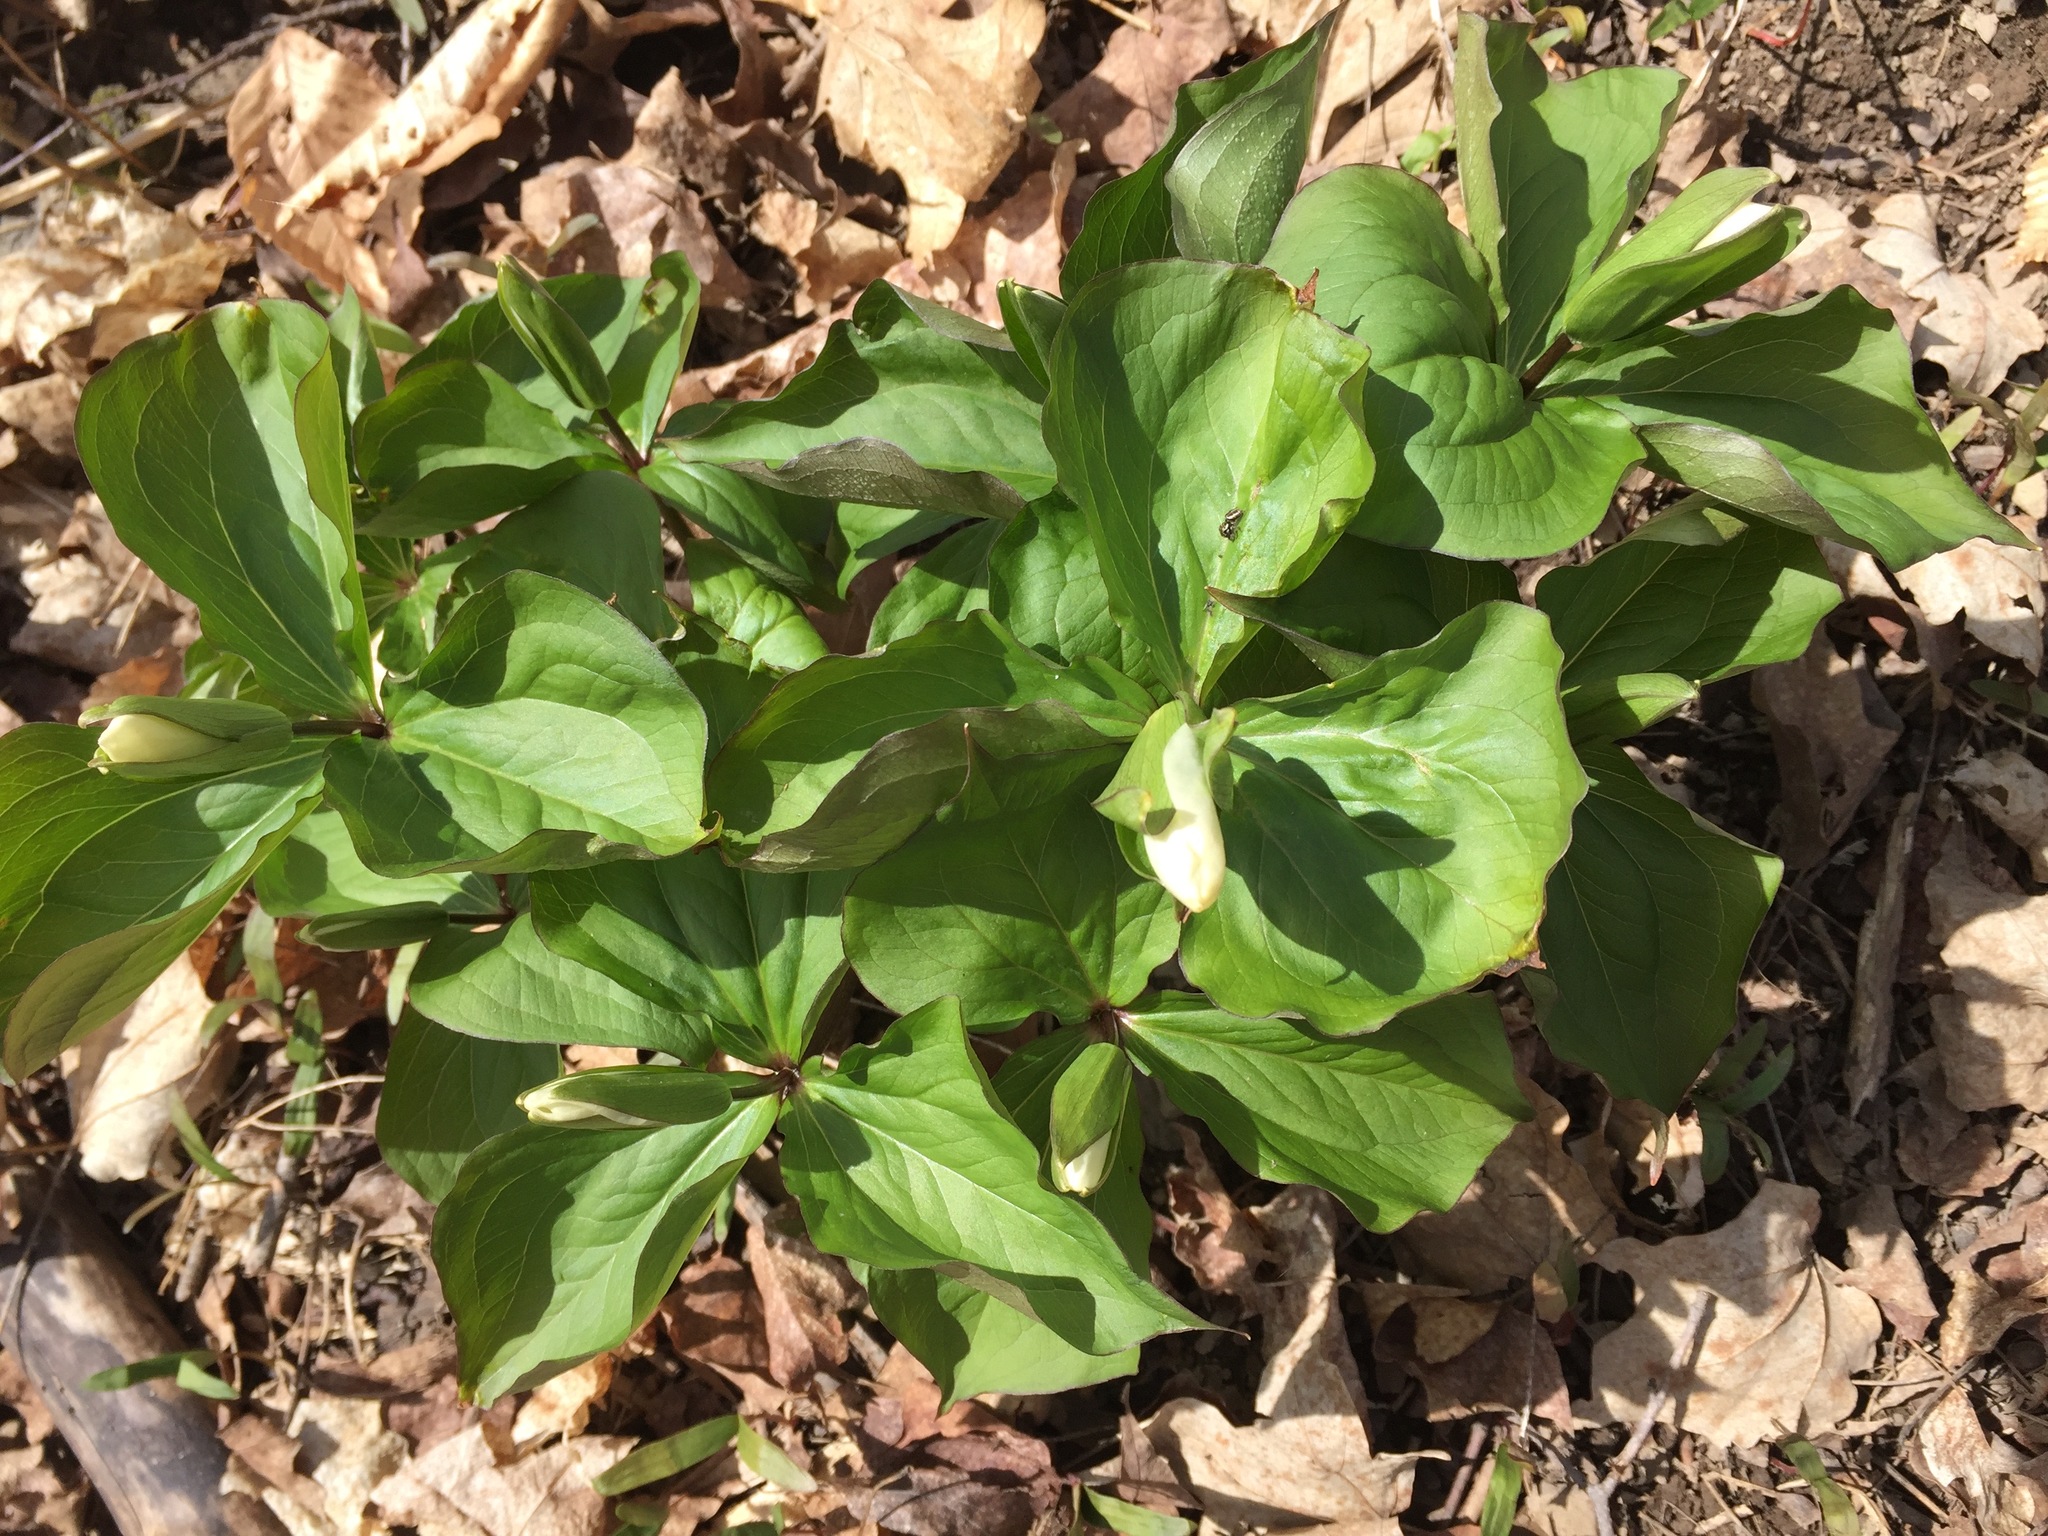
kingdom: Plantae
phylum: Tracheophyta
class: Liliopsida
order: Liliales
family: Melanthiaceae
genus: Trillium
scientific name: Trillium grandiflorum
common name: Great white trillium
